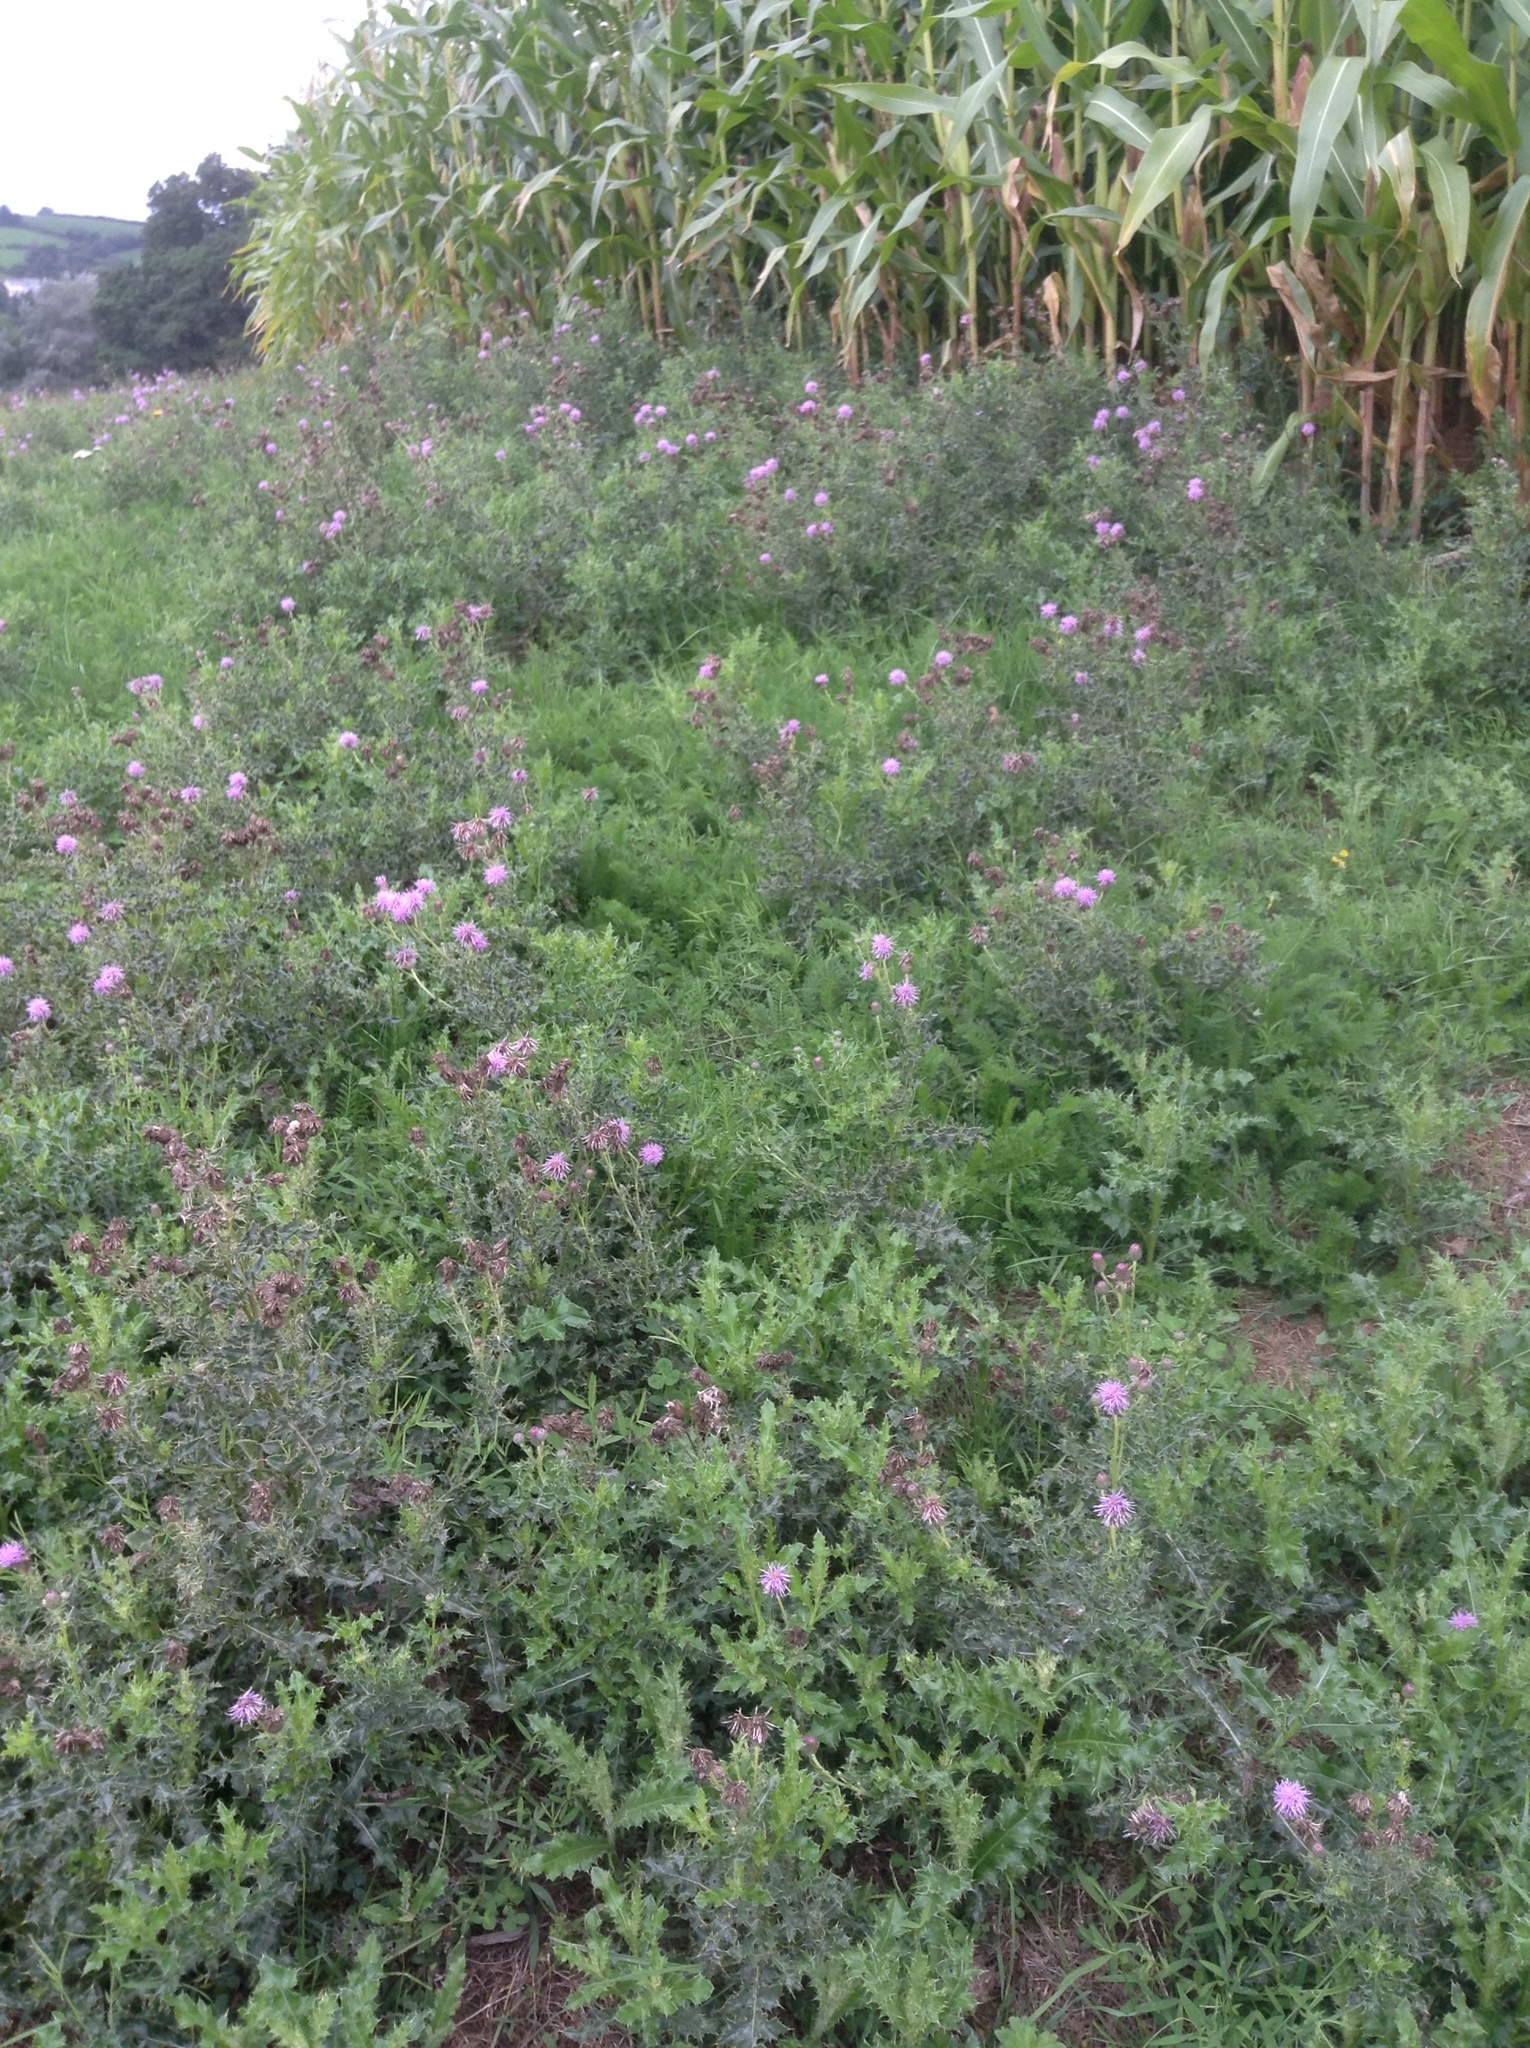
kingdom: Plantae
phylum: Tracheophyta
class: Magnoliopsida
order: Asterales
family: Asteraceae
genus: Cirsium
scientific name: Cirsium arvense
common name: Creeping thistle
